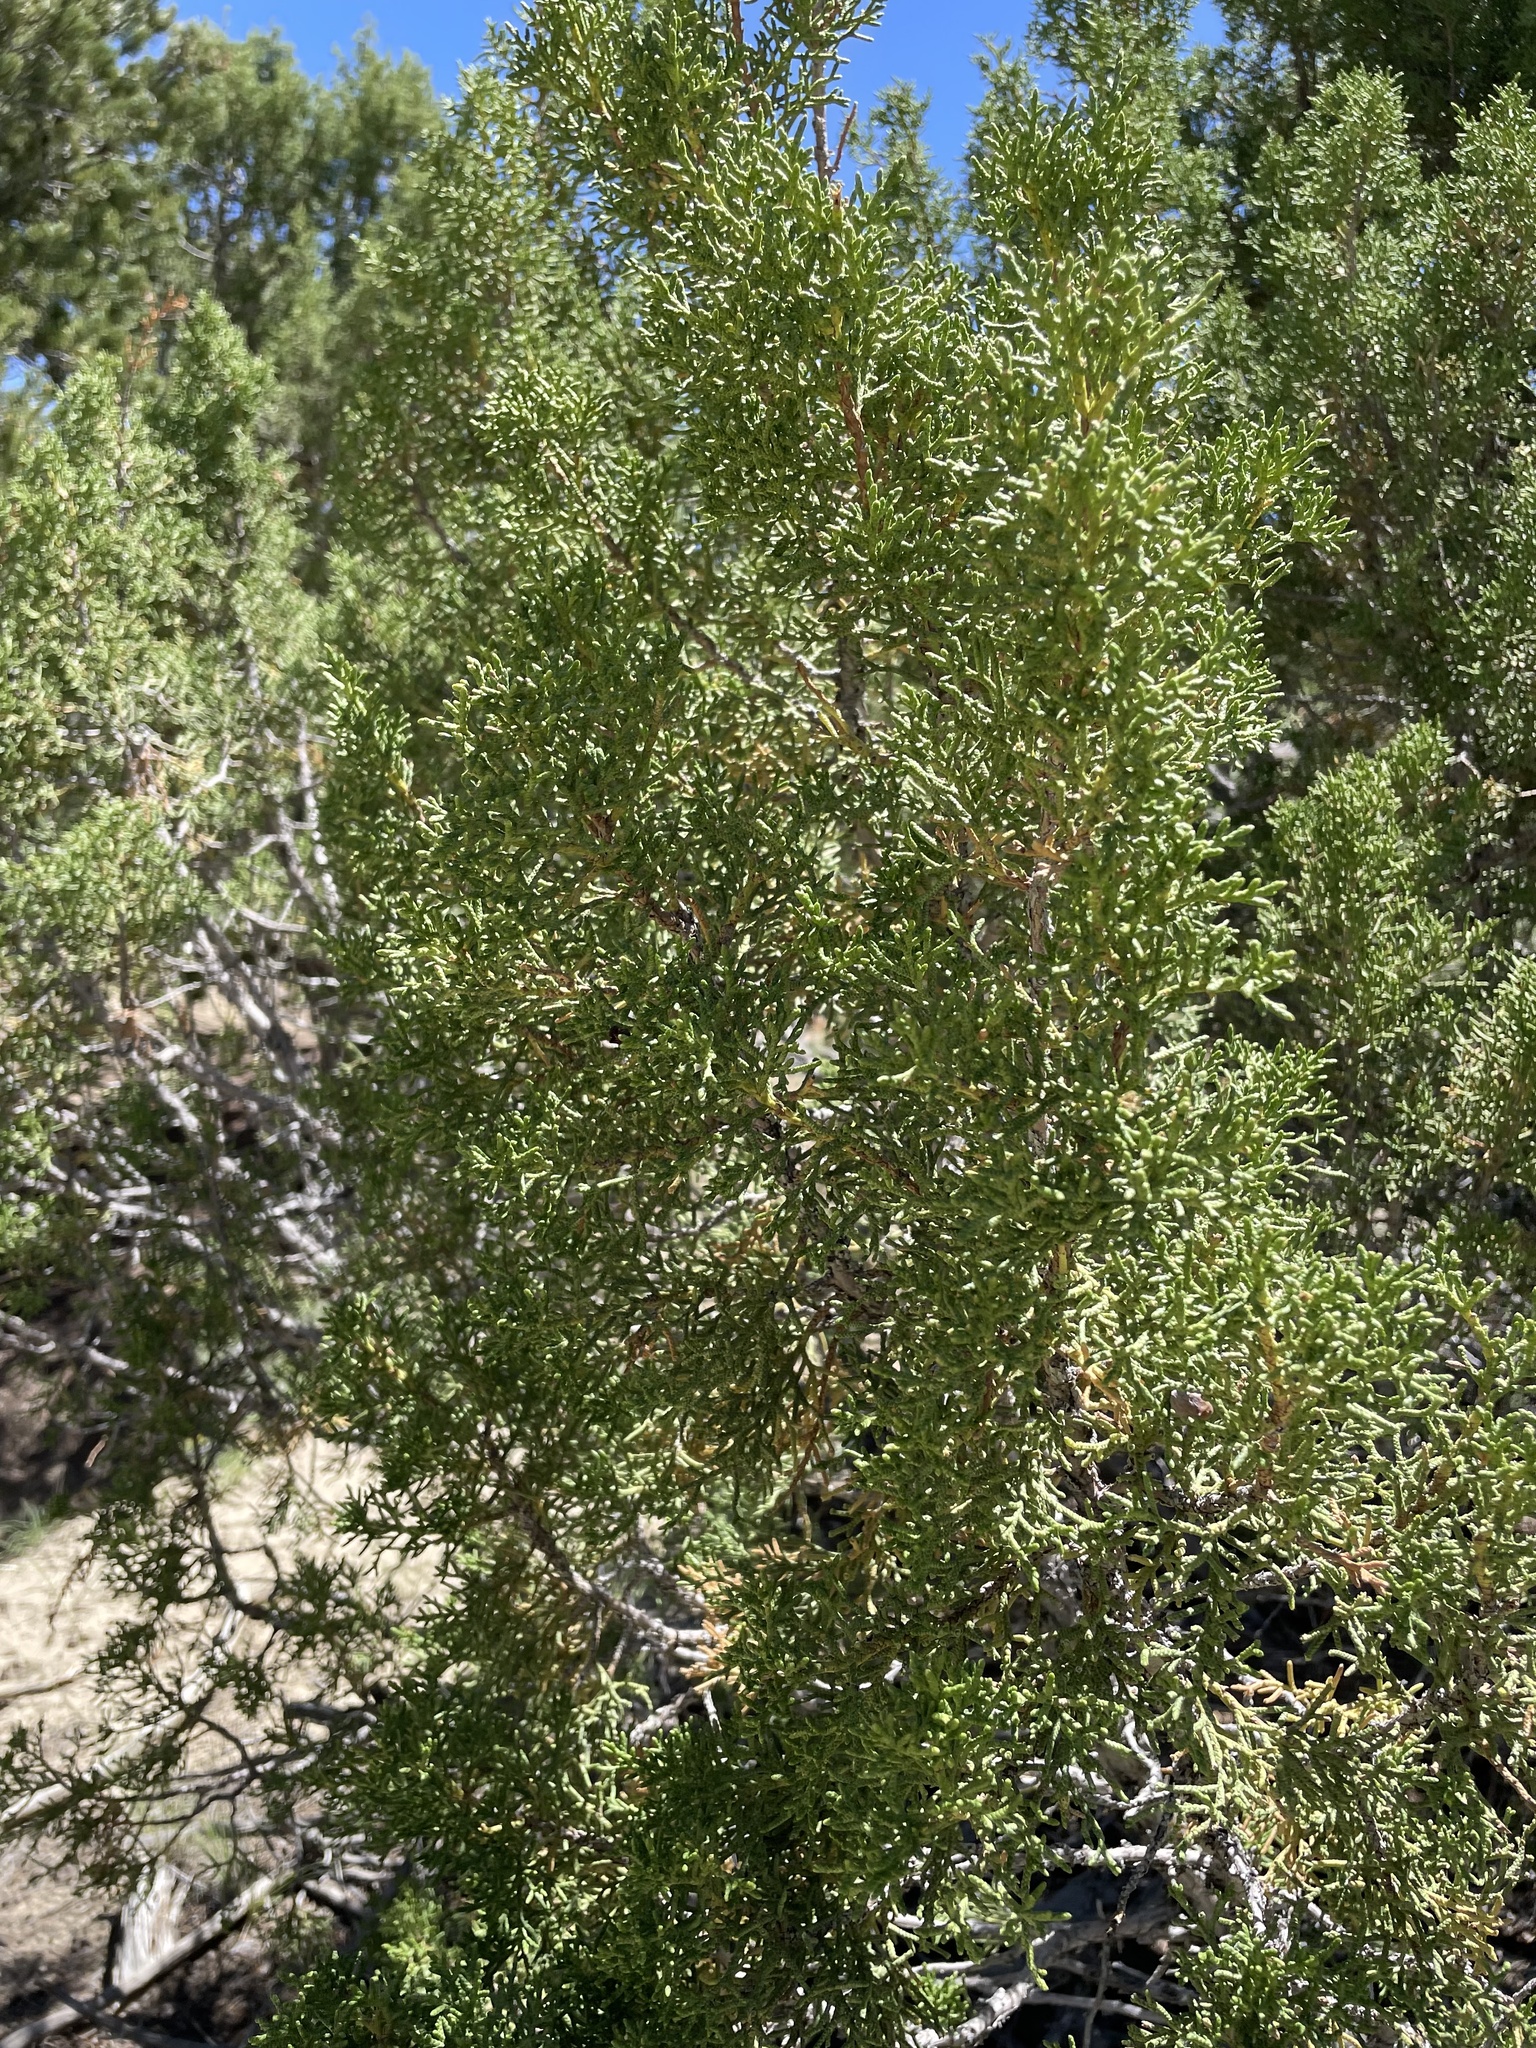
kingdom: Plantae
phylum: Tracheophyta
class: Pinopsida
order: Pinales
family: Cupressaceae
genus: Juniperus
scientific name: Juniperus osteosperma
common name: Utah juniper
